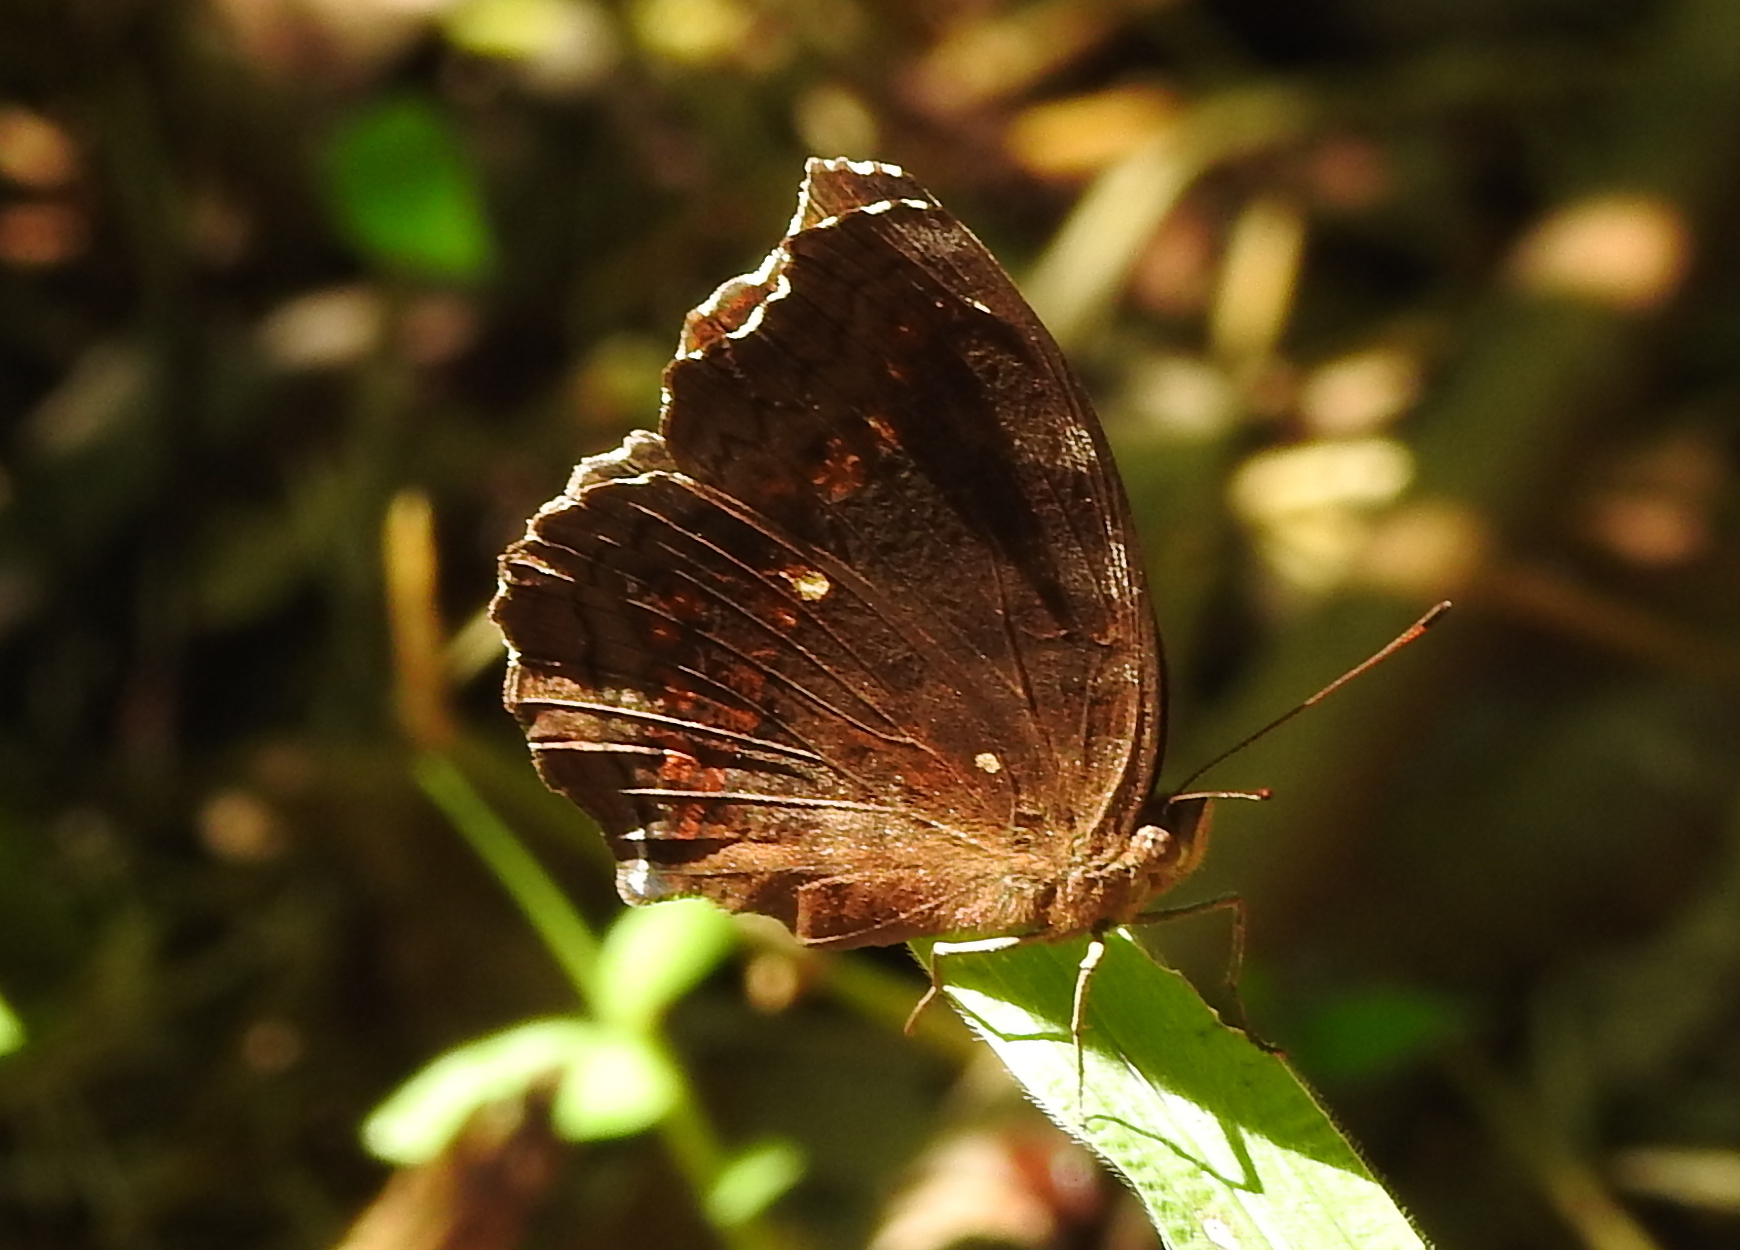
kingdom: Animalia
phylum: Arthropoda
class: Insecta
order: Lepidoptera
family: Nymphalidae
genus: Junonia
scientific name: Junonia hedonia
